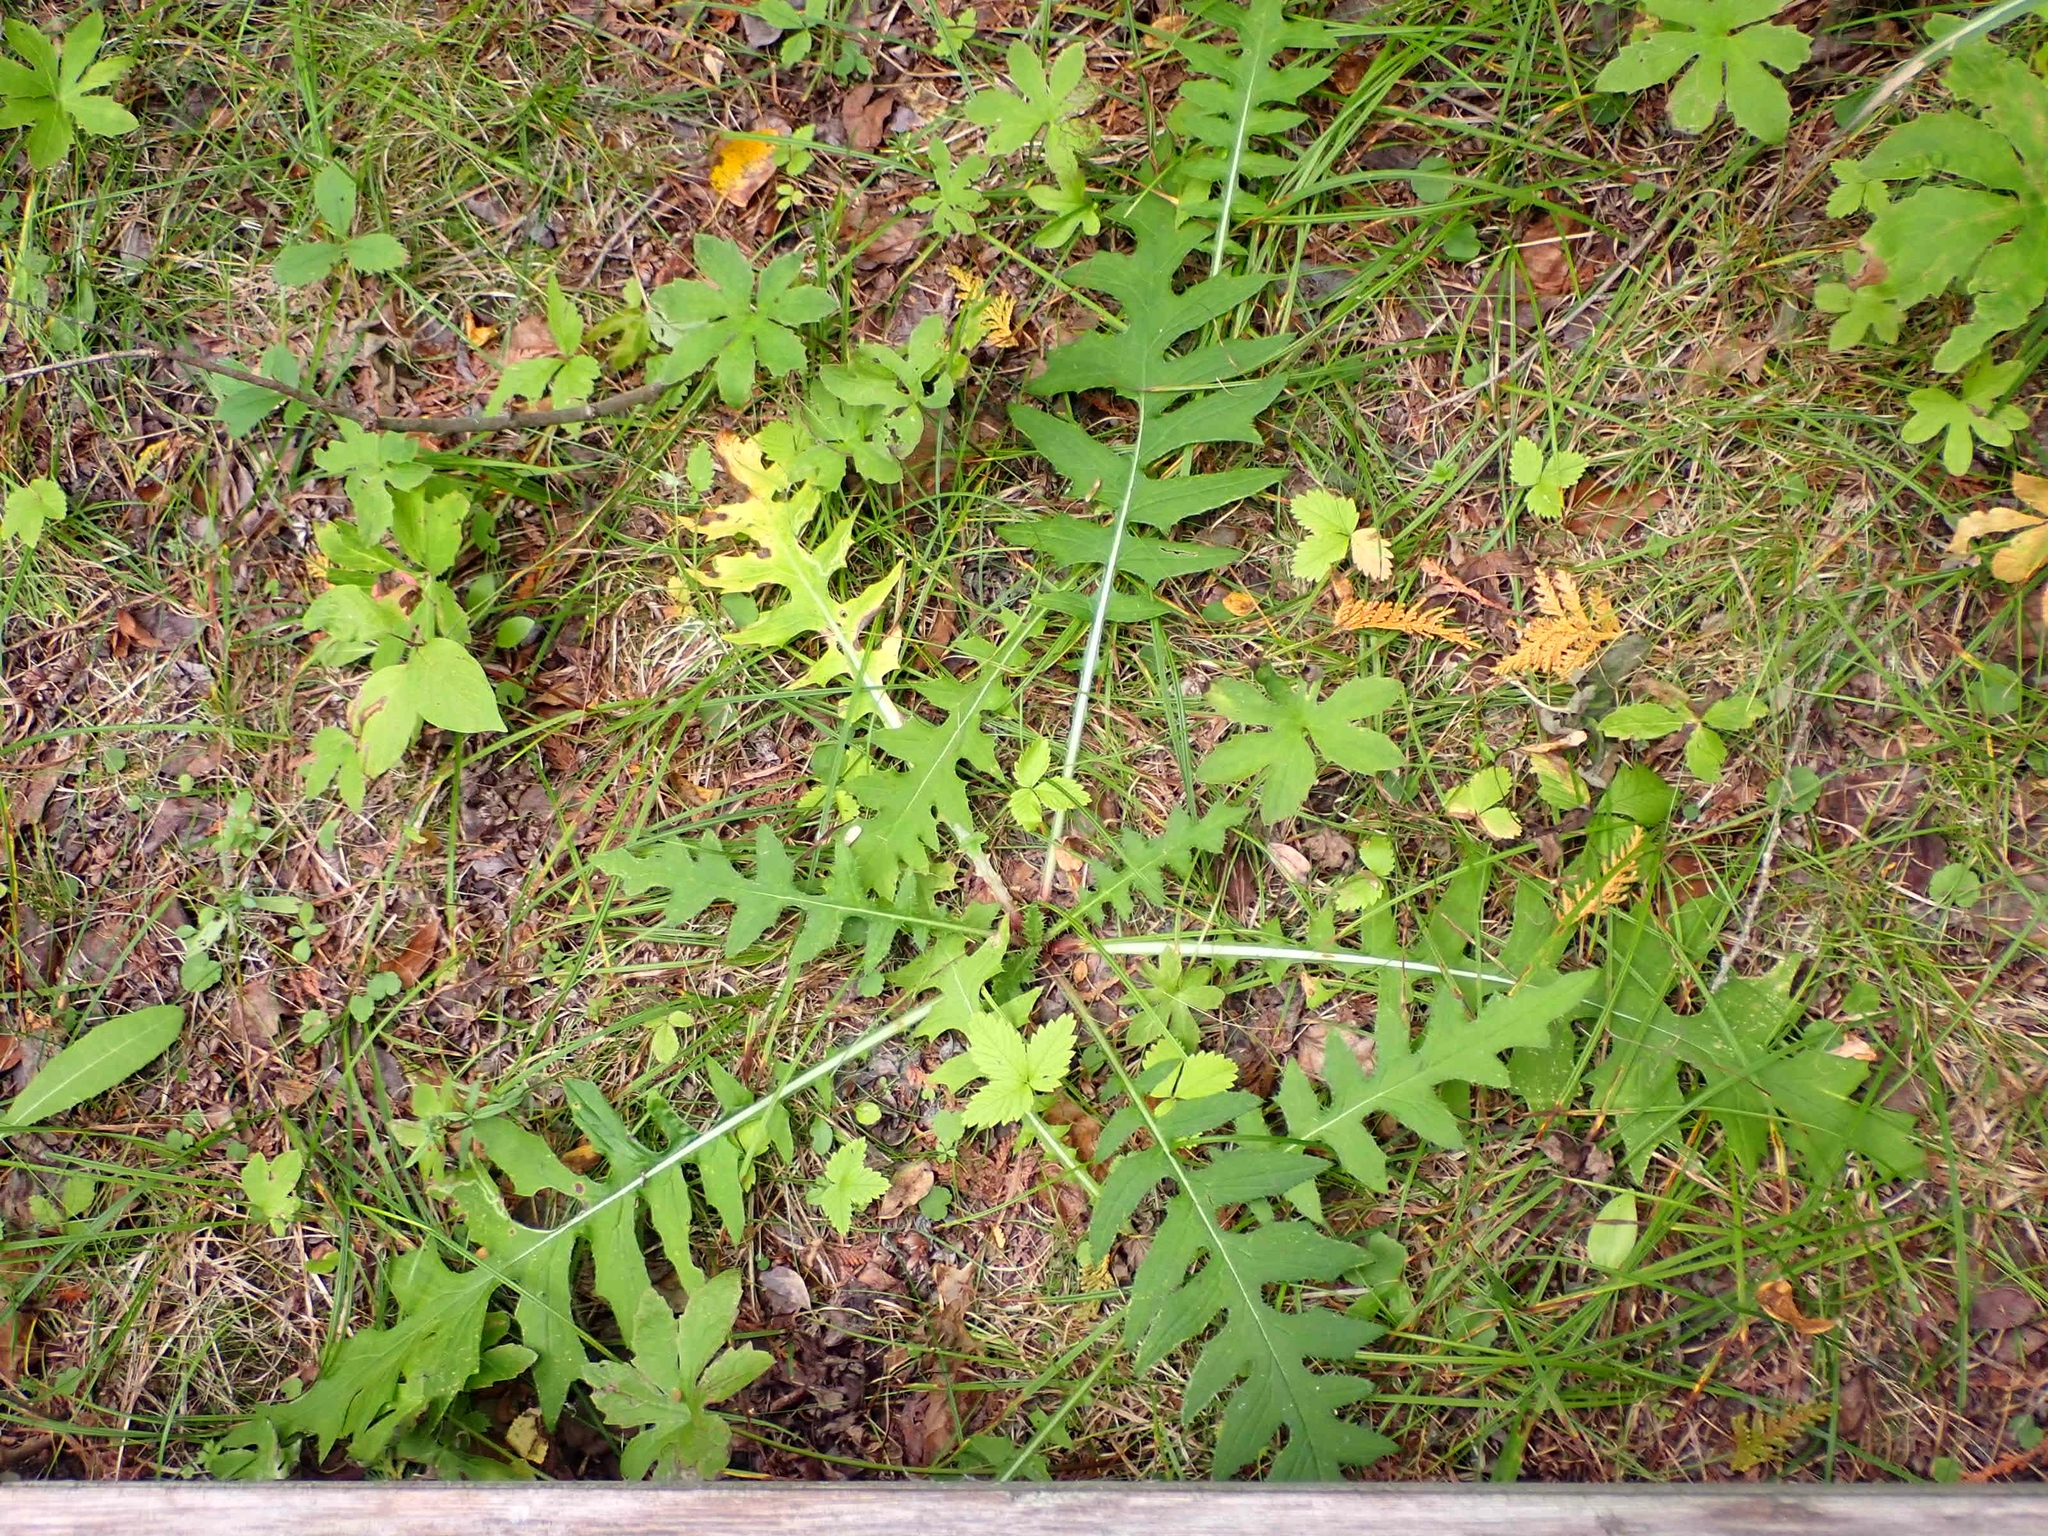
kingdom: Plantae
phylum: Tracheophyta
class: Magnoliopsida
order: Asterales
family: Asteraceae
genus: Cirsium
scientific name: Cirsium muticum
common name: Dunce-nettle
